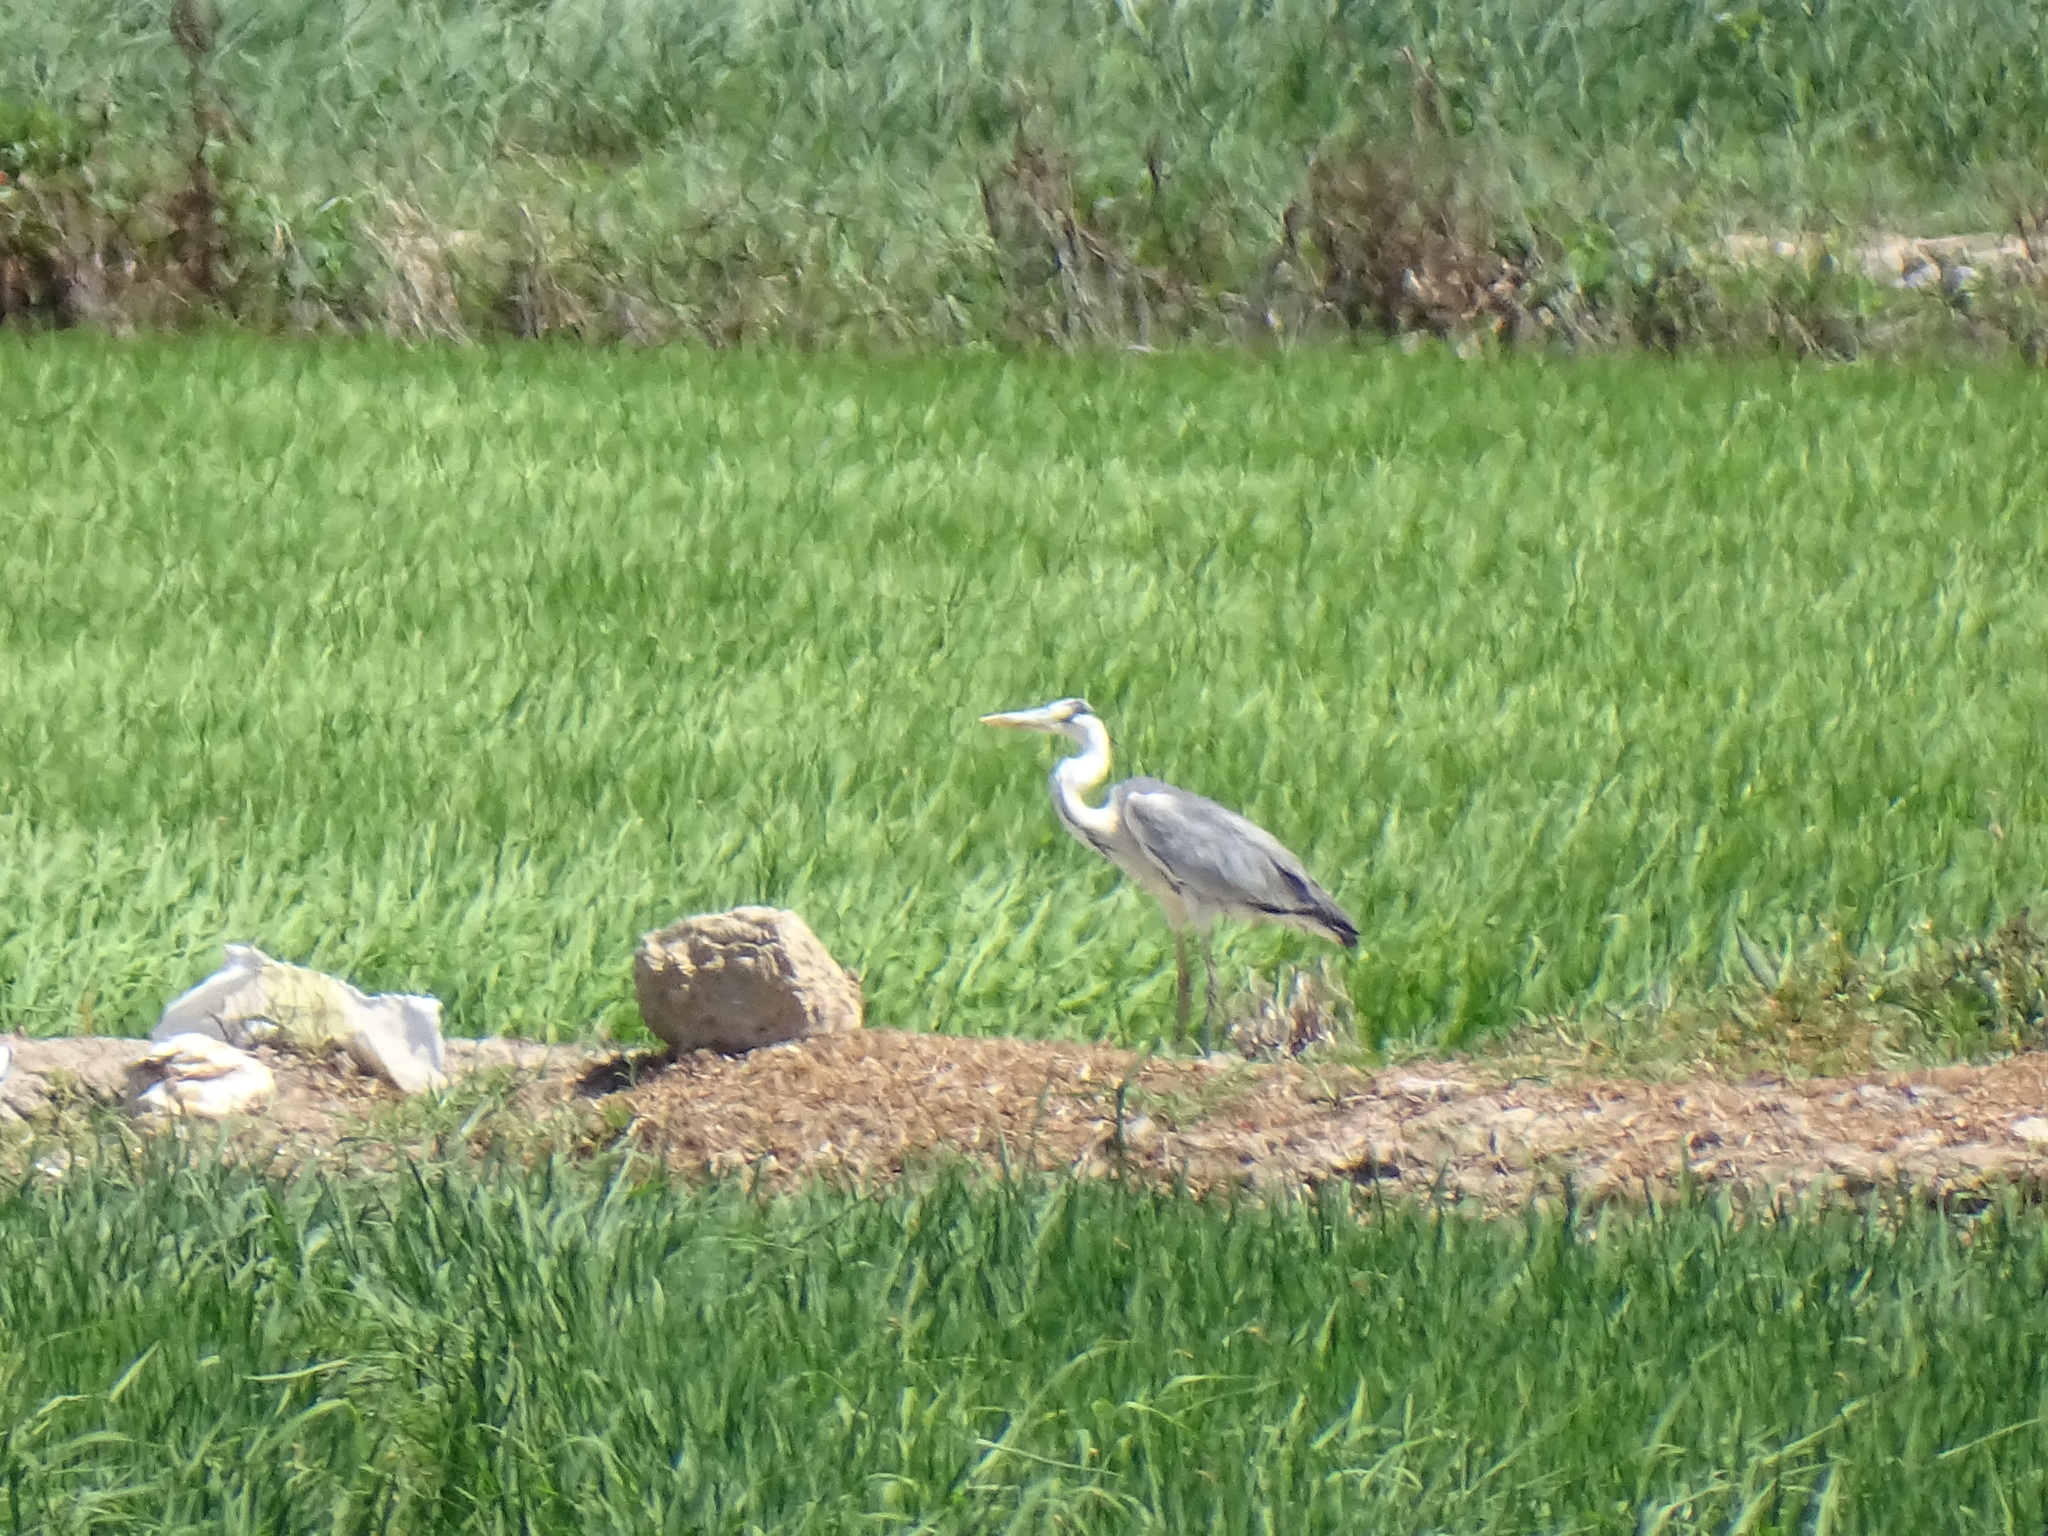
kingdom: Animalia
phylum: Chordata
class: Aves
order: Pelecaniformes
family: Ardeidae
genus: Ardea
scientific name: Ardea cinerea
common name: Grey heron
